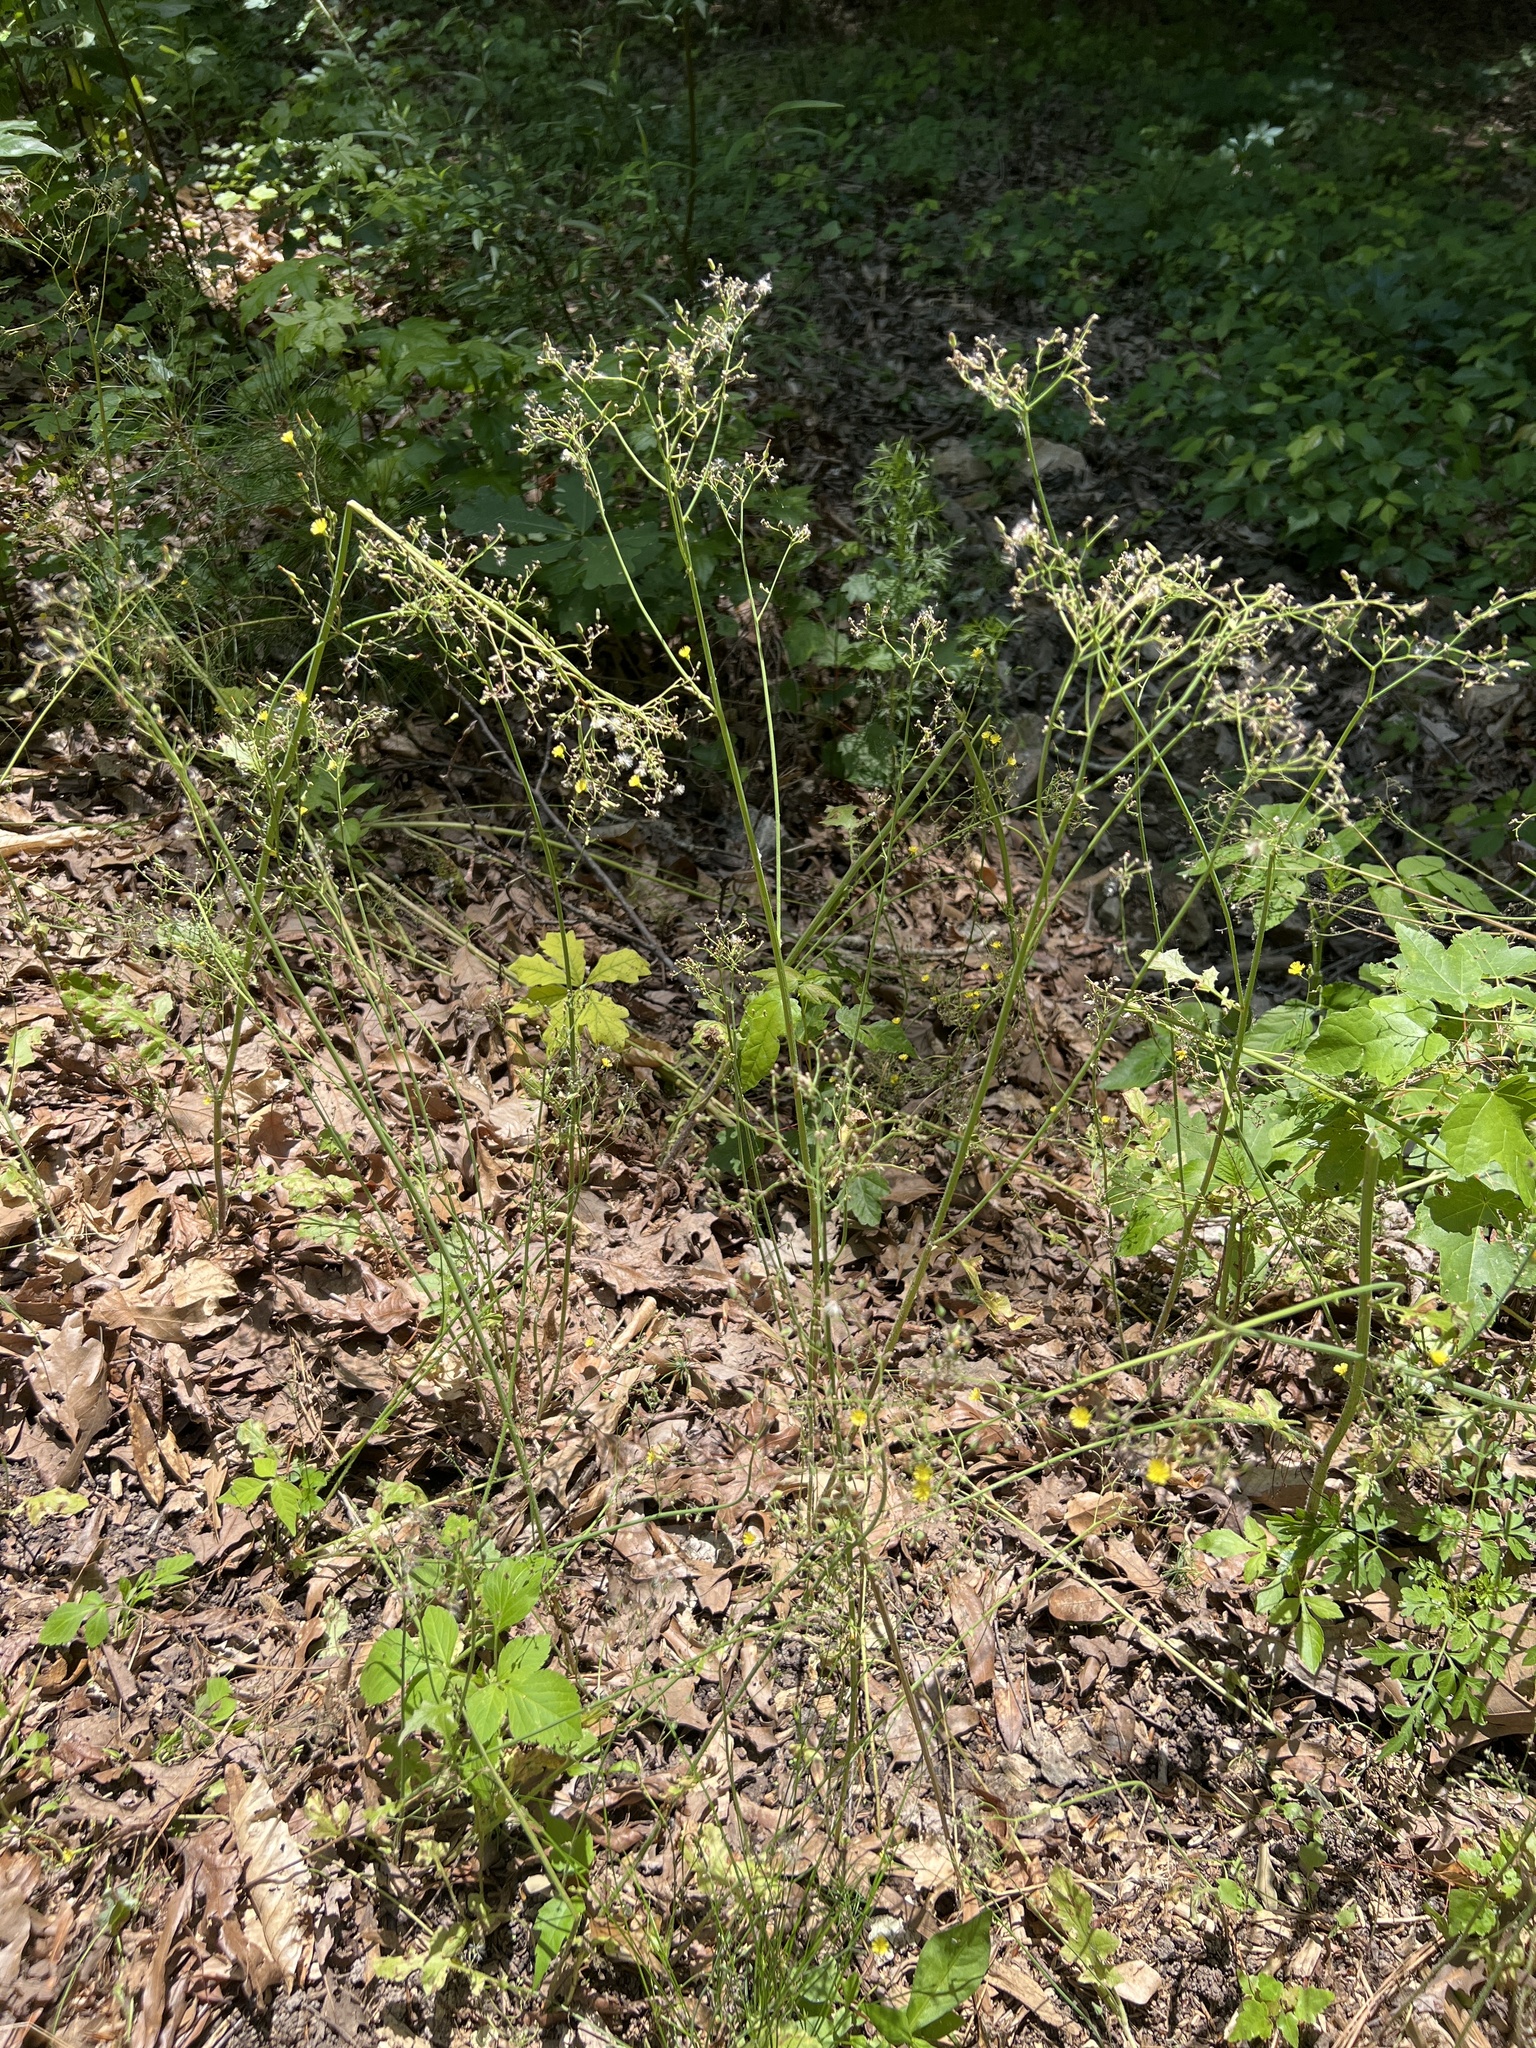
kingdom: Plantae
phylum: Tracheophyta
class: Magnoliopsida
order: Asterales
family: Asteraceae
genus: Youngia
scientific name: Youngia japonica
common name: Oriental false hawksbeard
